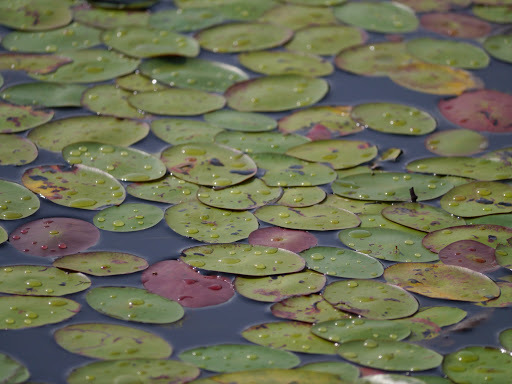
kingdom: Plantae
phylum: Tracheophyta
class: Magnoliopsida
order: Nymphaeales
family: Nymphaeaceae
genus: Nymphaea
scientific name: Nymphaea odorata
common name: Fragrant water-lily
